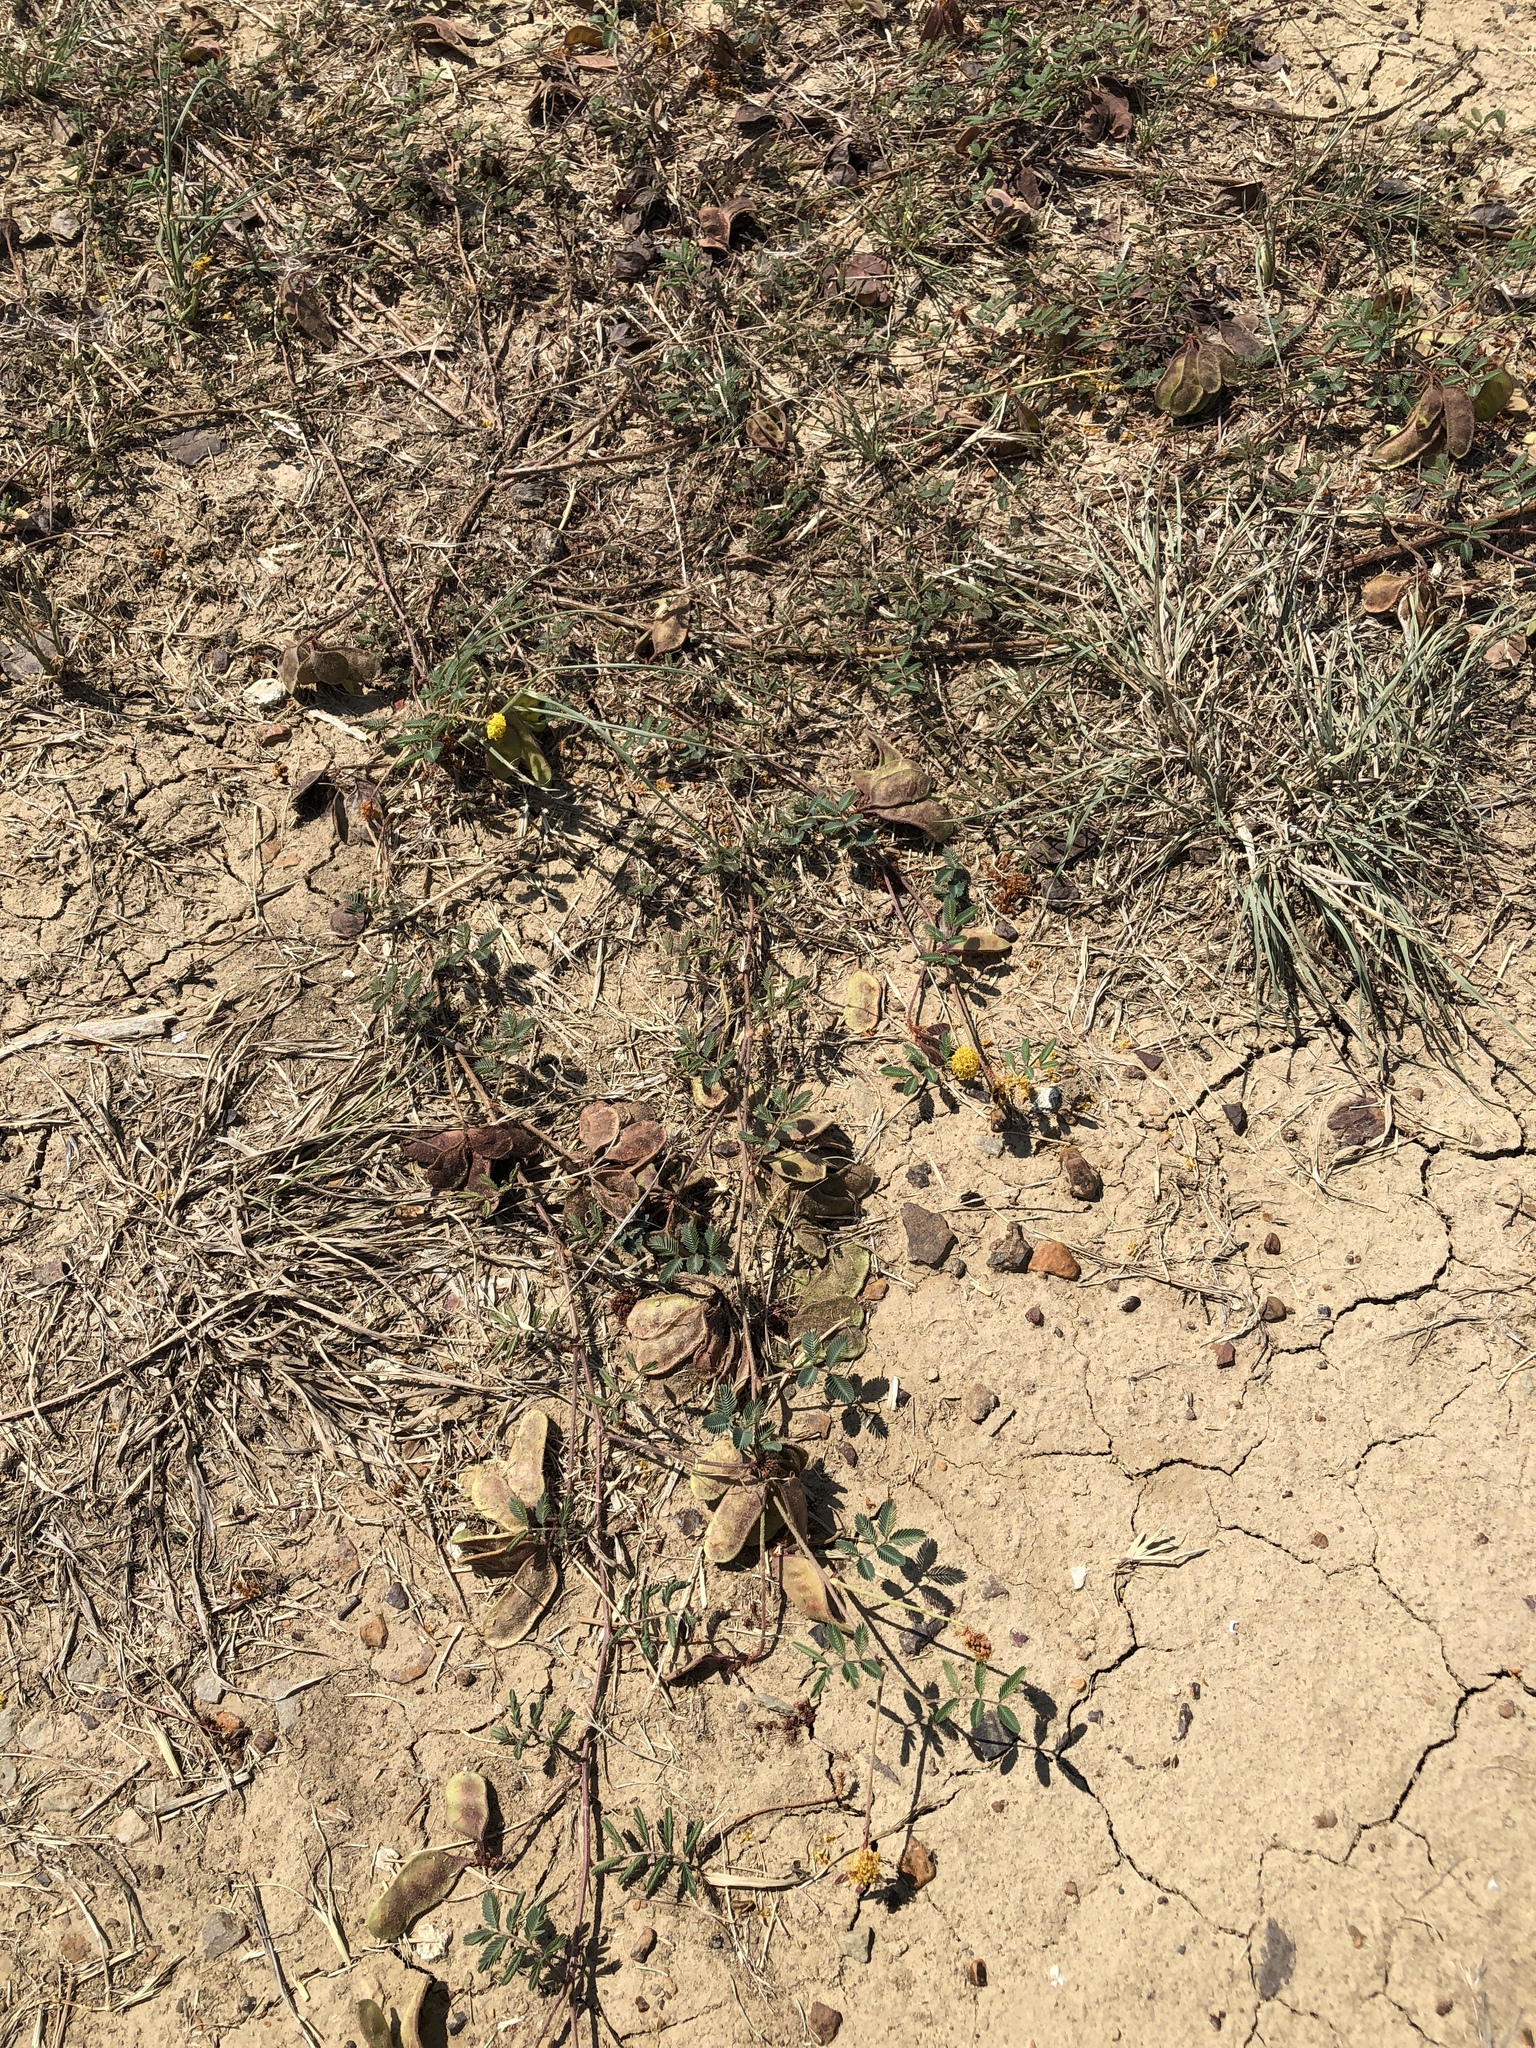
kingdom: Plantae
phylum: Tracheophyta
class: Magnoliopsida
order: Fabales
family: Fabaceae
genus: Neptunia
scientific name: Neptunia lutea
